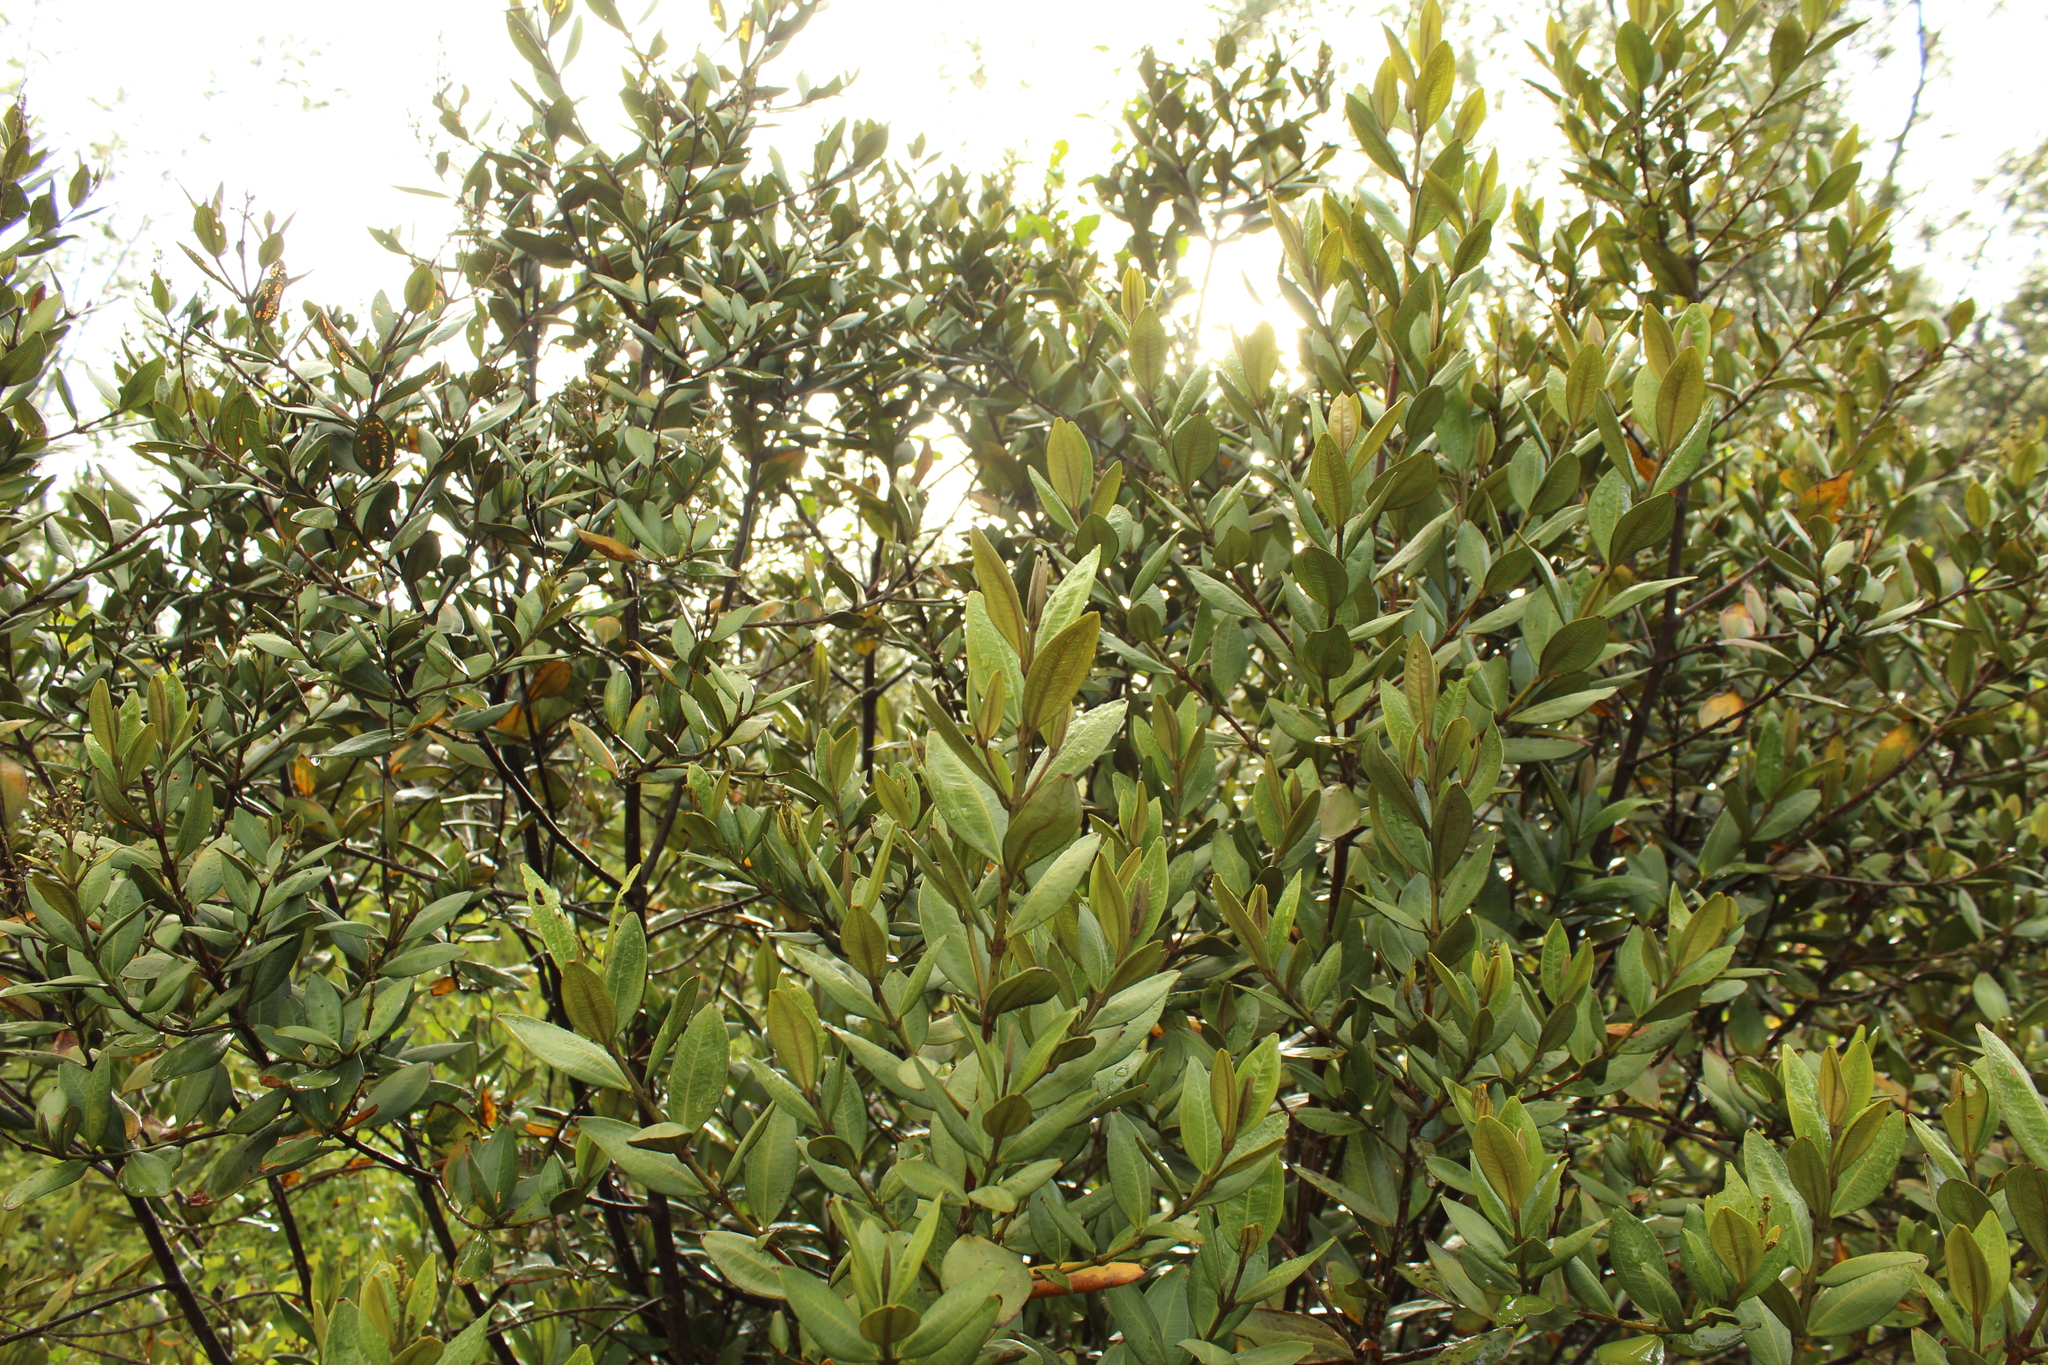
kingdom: Plantae
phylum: Tracheophyta
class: Magnoliopsida
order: Myrtales
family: Melastomataceae
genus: Miconia
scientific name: Miconia squamulosa
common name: Squamulose maya
